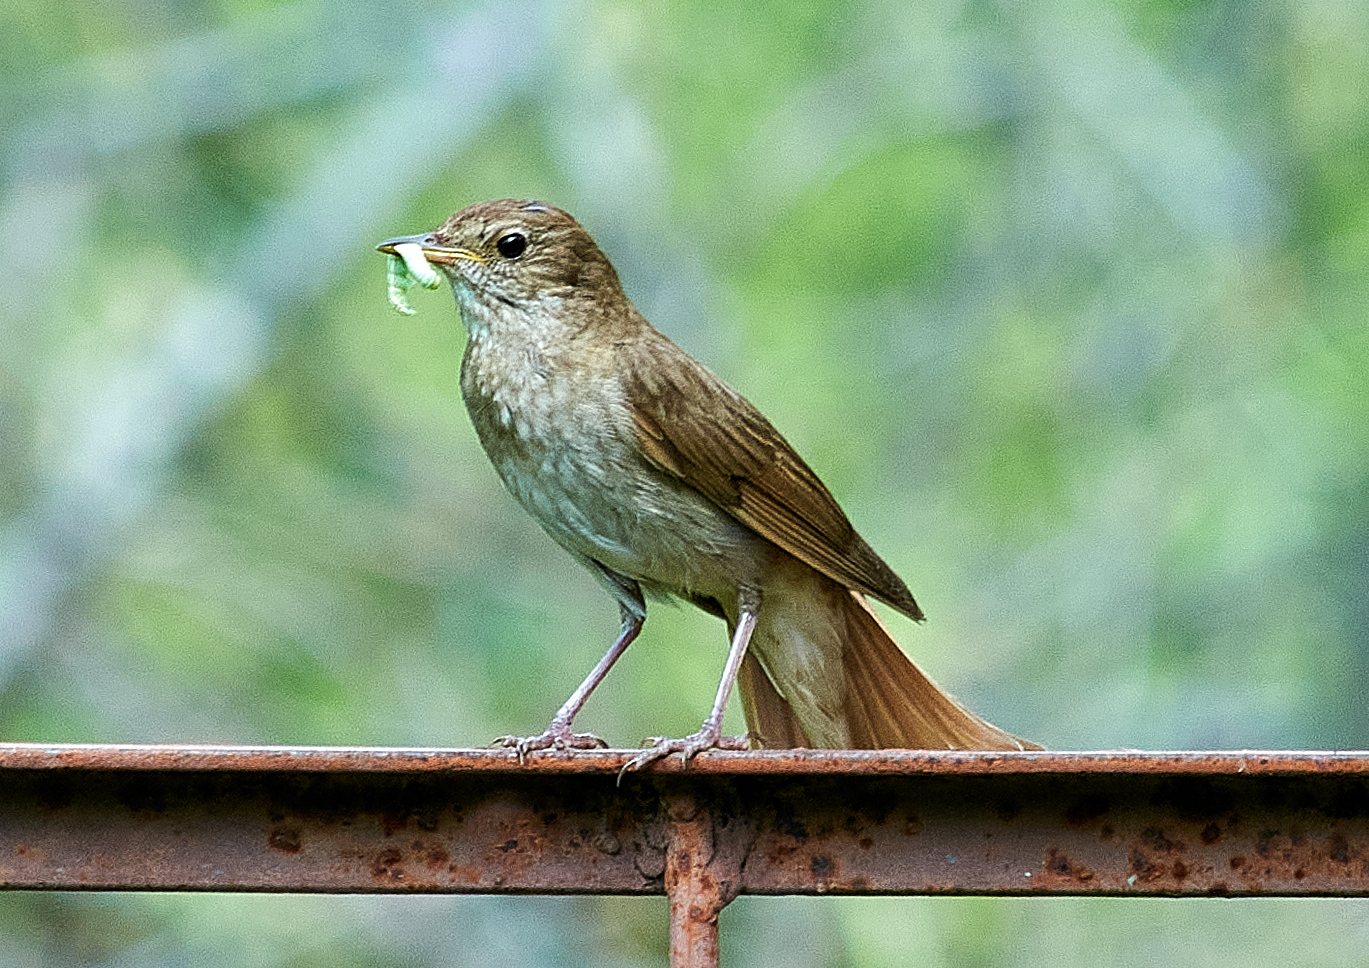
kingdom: Animalia
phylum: Chordata
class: Aves
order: Passeriformes
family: Muscicapidae
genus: Luscinia
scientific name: Luscinia luscinia
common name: Thrush nightingale
